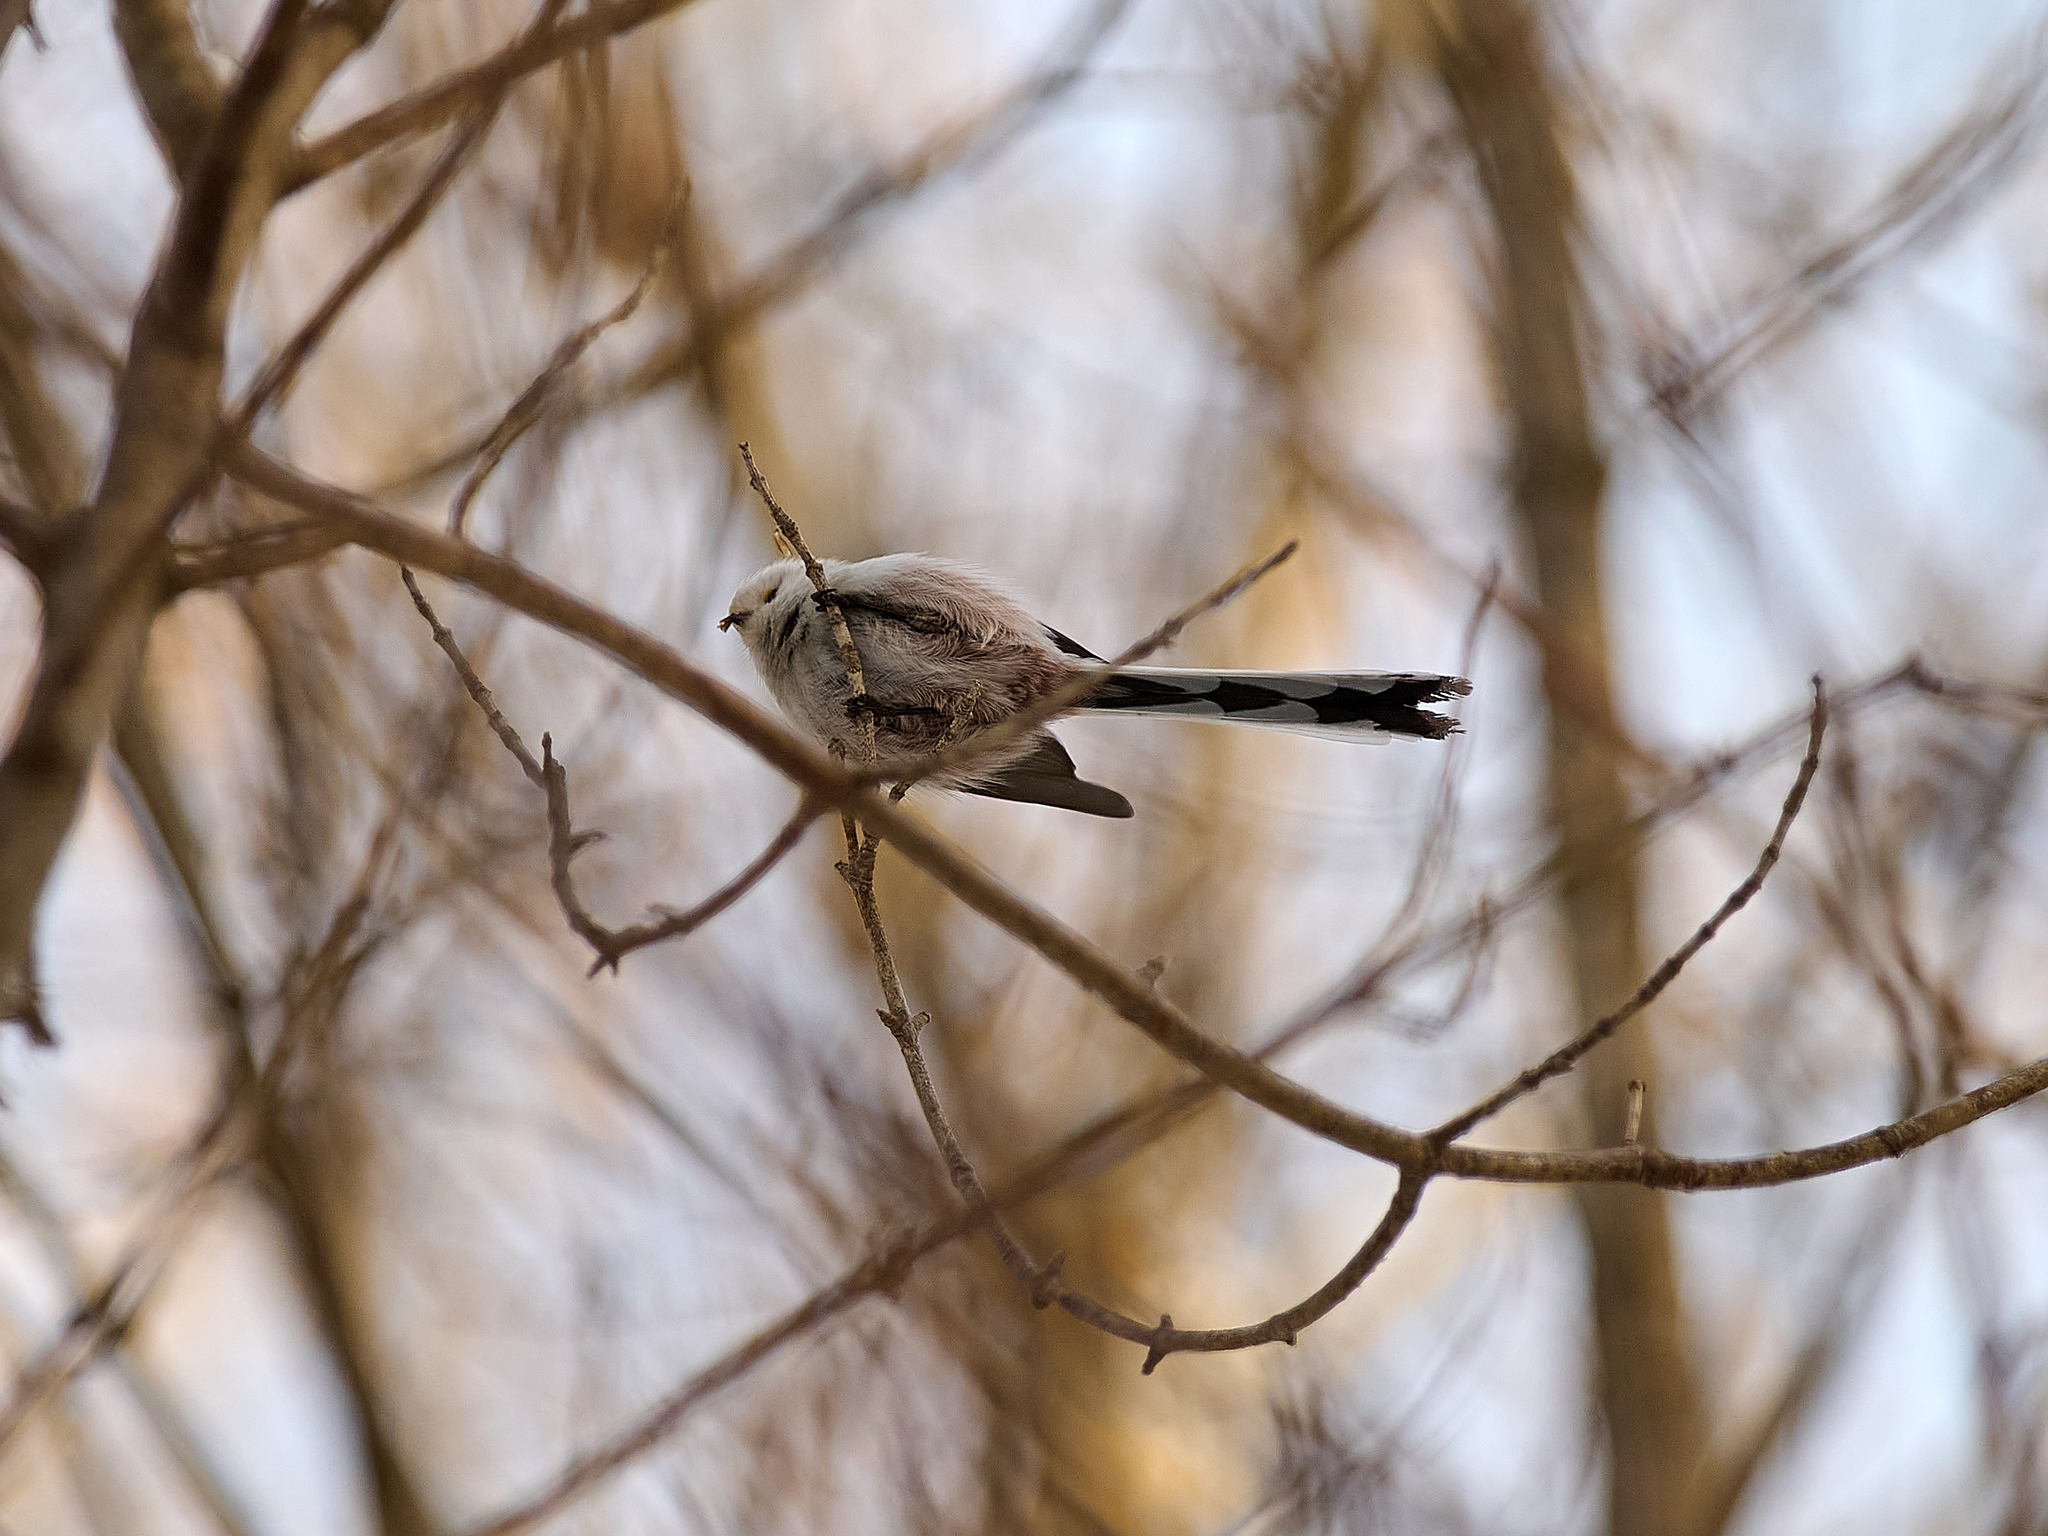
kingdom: Animalia
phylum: Chordata
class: Aves
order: Passeriformes
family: Aegithalidae
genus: Aegithalos
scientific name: Aegithalos caudatus
